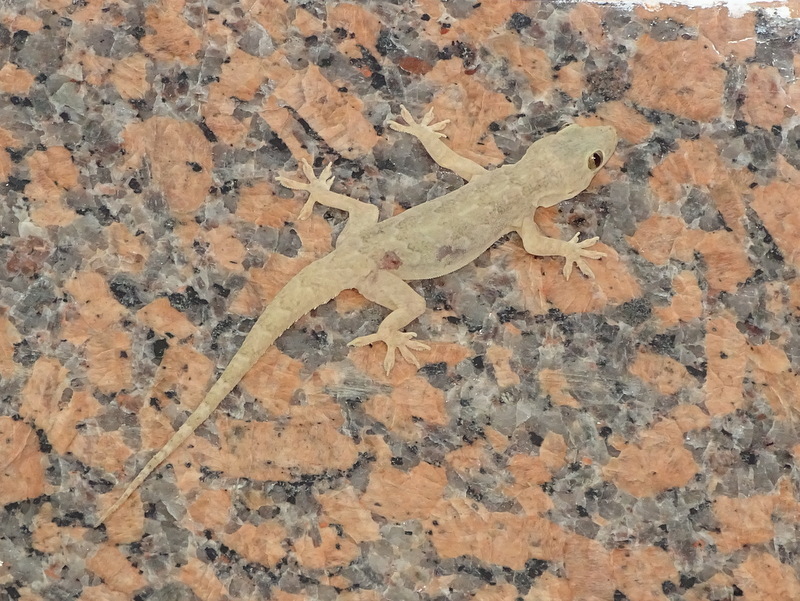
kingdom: Animalia
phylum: Chordata
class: Squamata
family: Gekkonidae
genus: Hemidactylus
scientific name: Hemidactylus flaviviridis
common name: Northern house gecko
